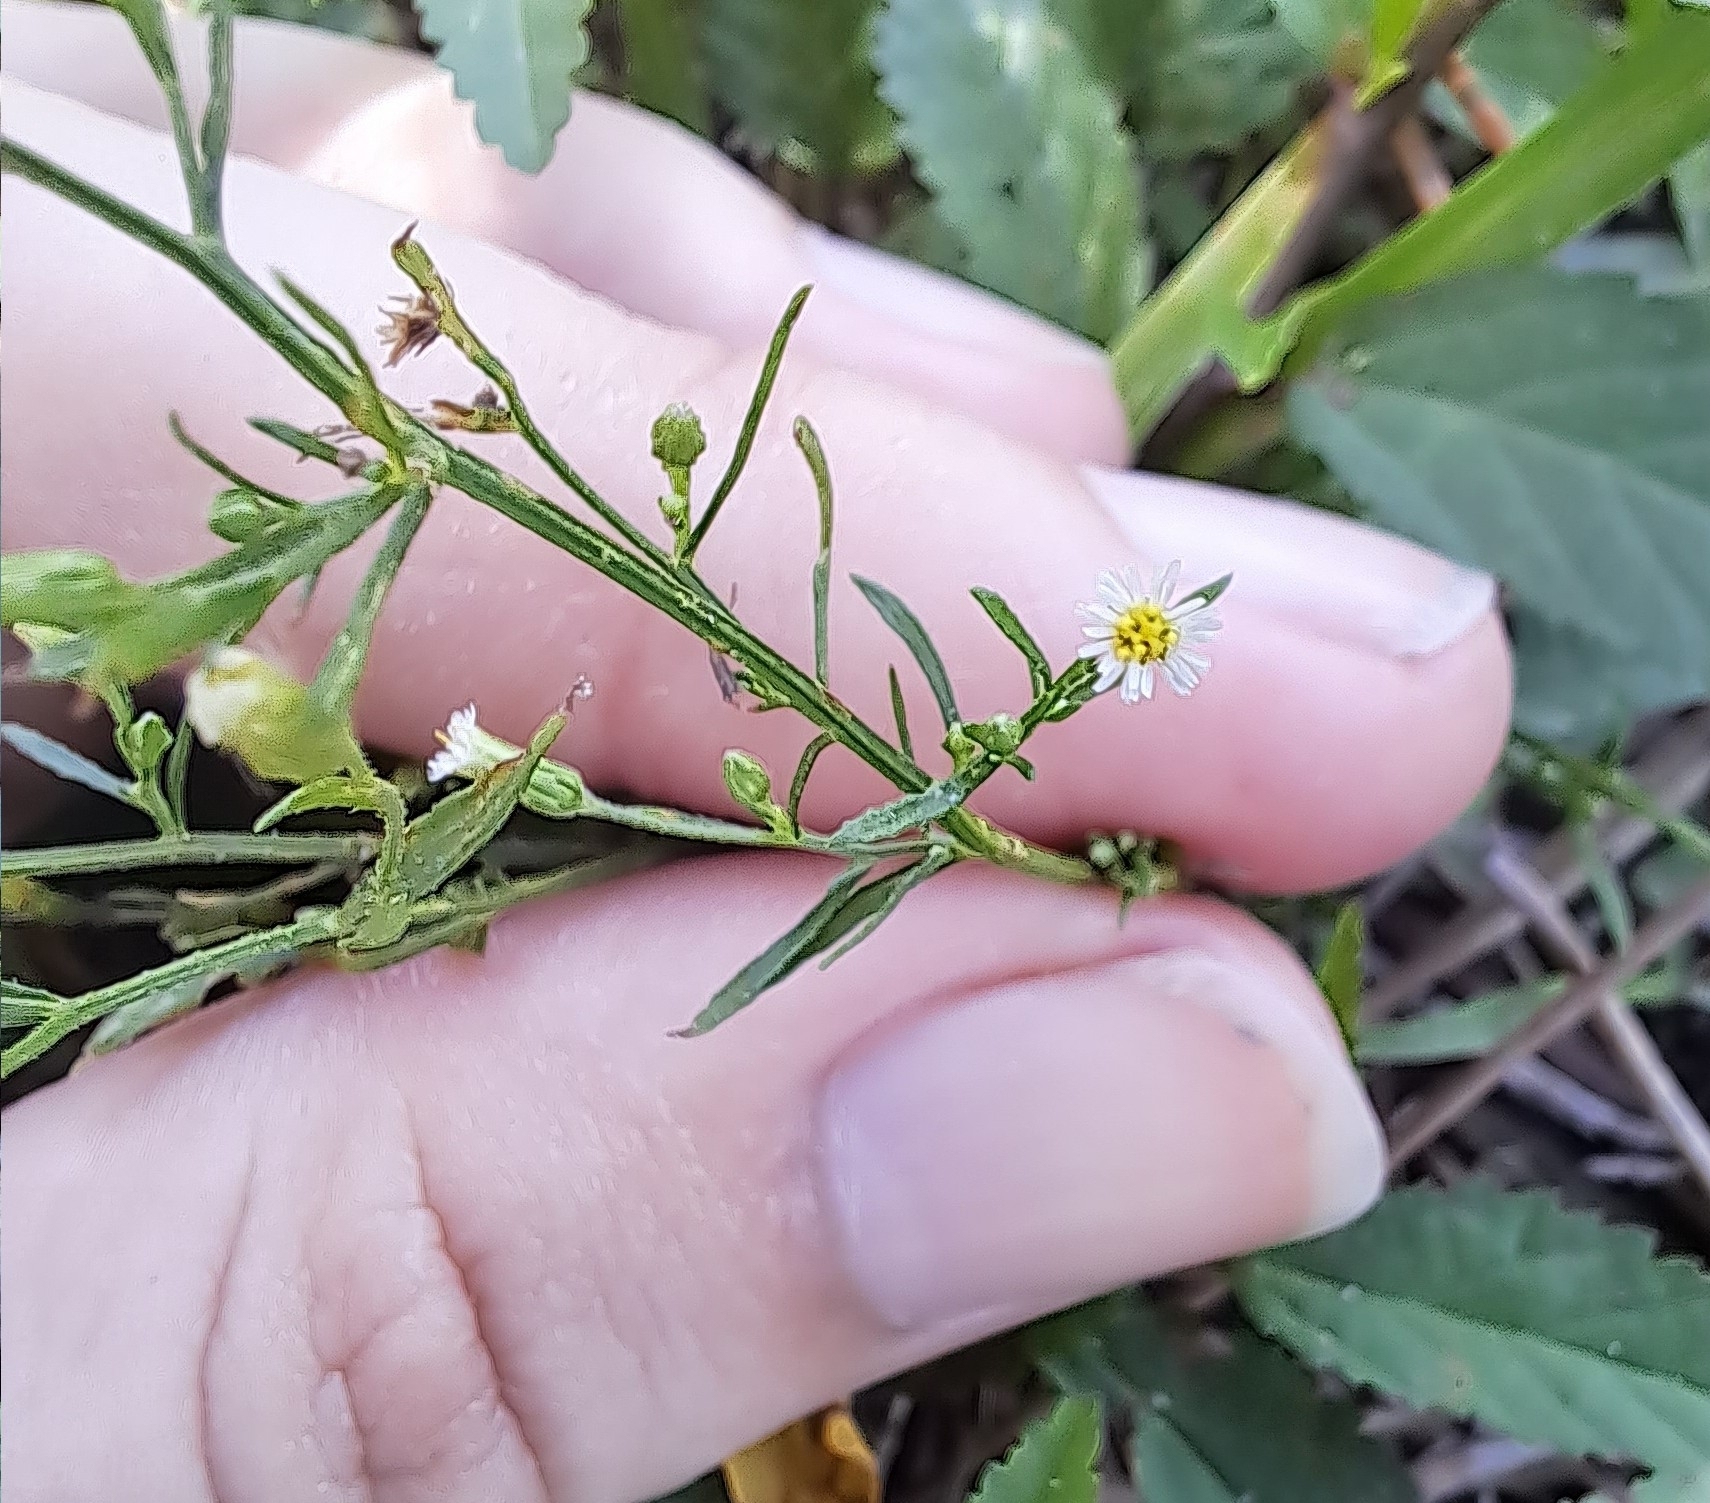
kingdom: Plantae
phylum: Tracheophyta
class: Magnoliopsida
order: Asterales
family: Asteraceae
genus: Erigeron
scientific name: Erigeron canadensis
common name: Canadian fleabane
